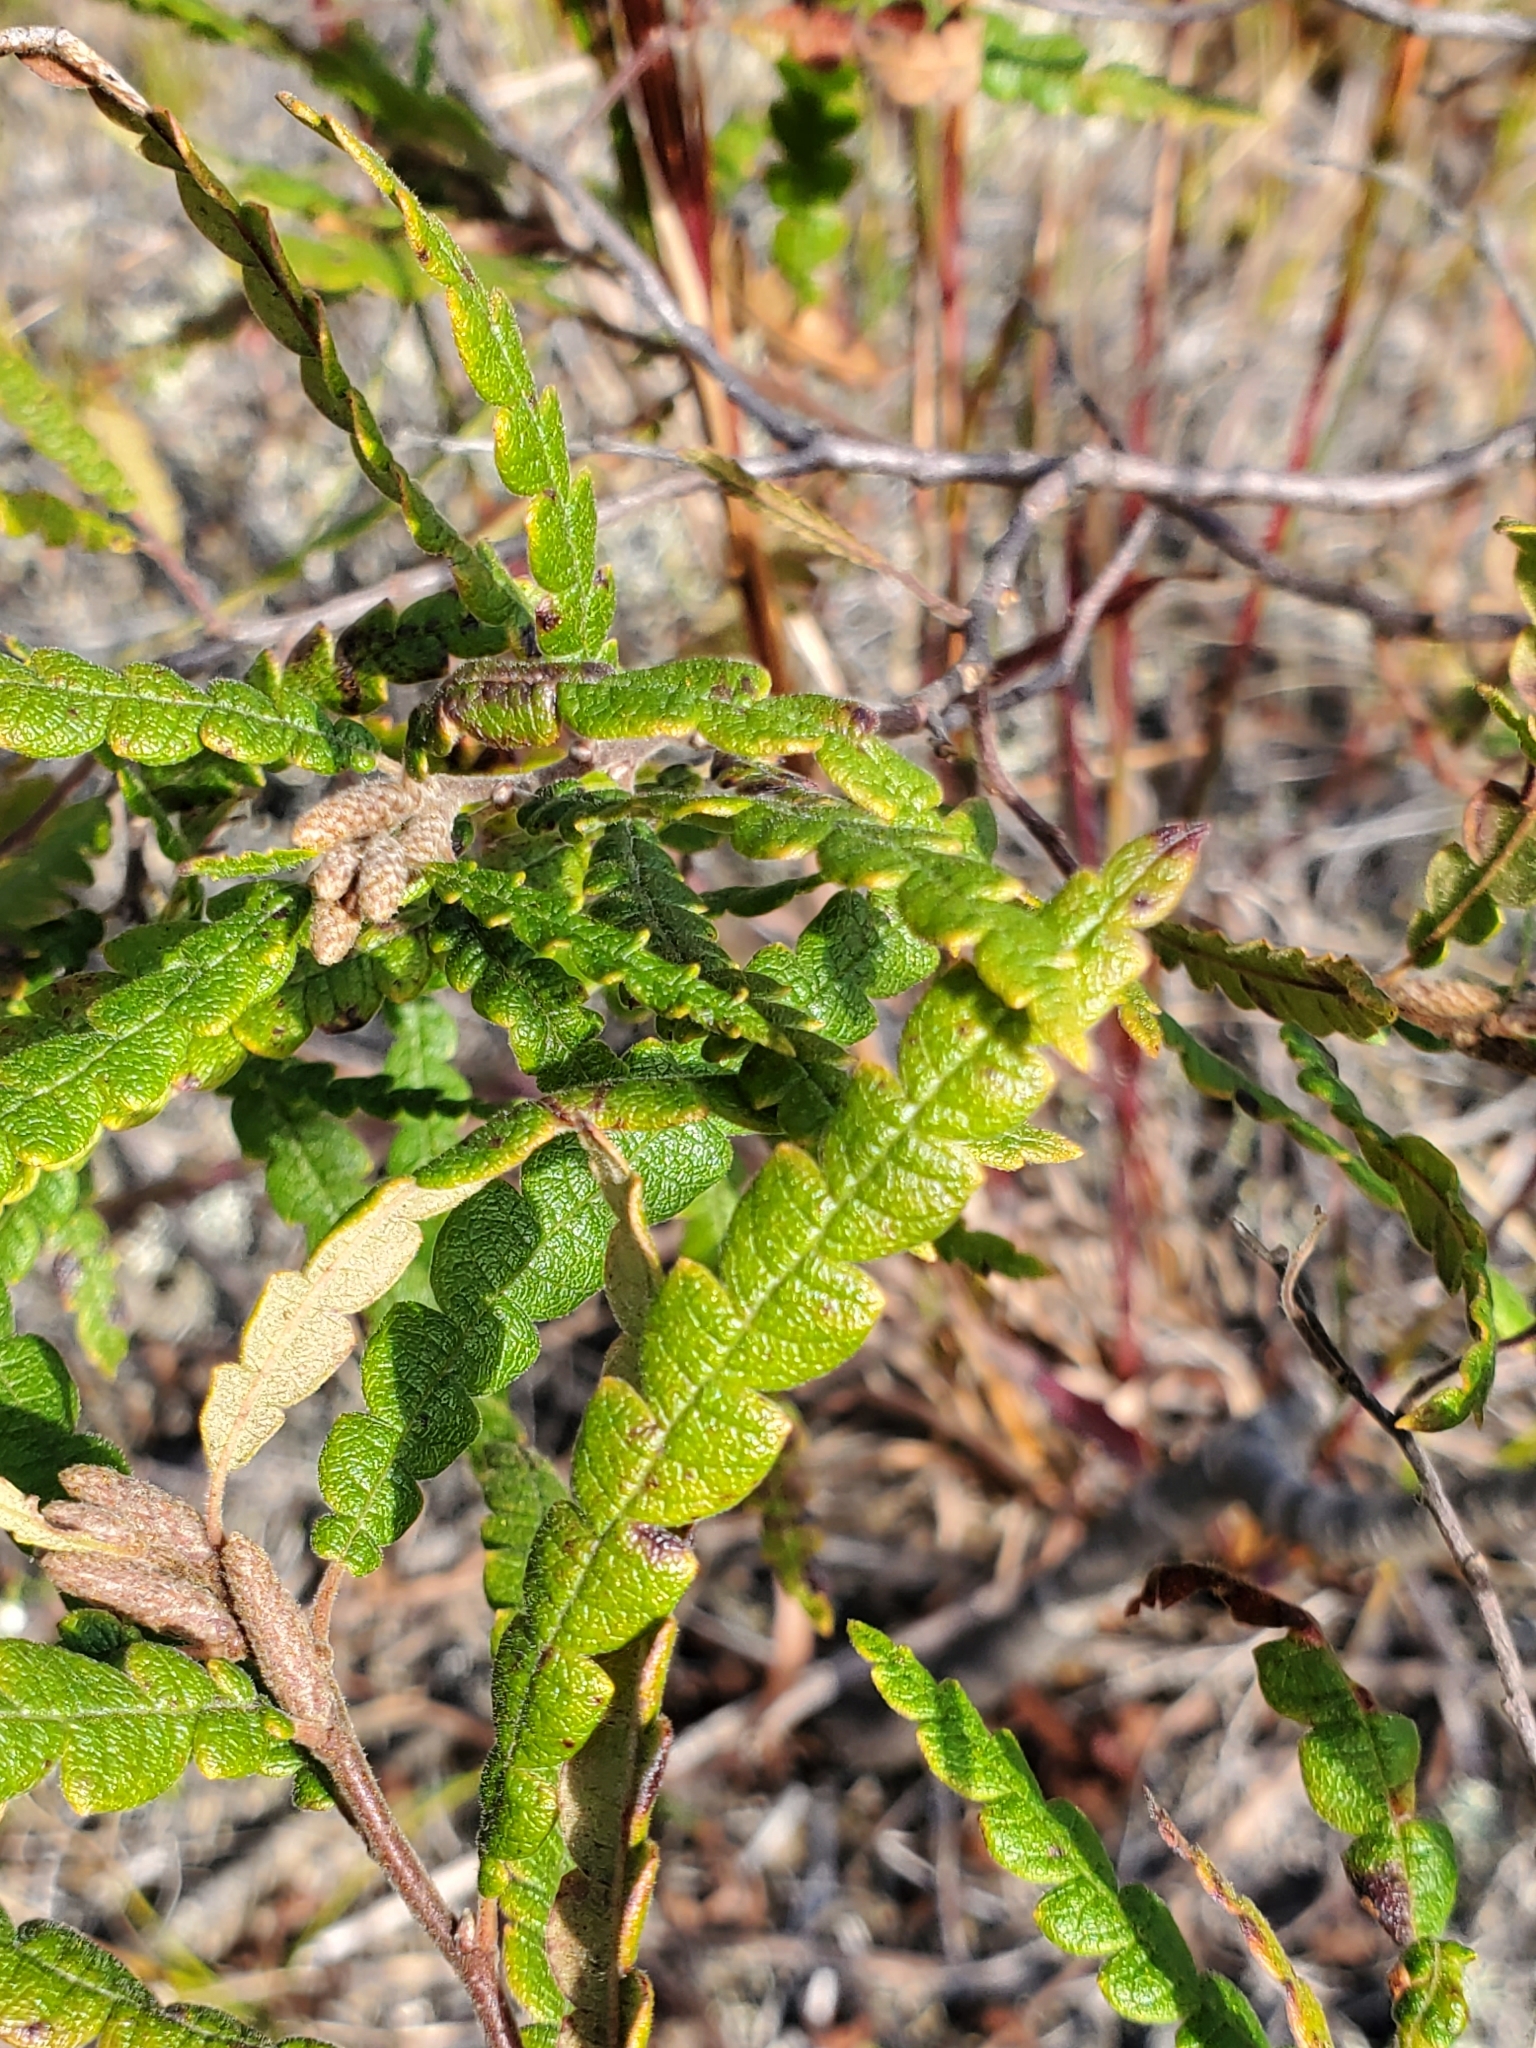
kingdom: Plantae
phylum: Tracheophyta
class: Magnoliopsida
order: Fagales
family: Myricaceae
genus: Comptonia
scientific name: Comptonia peregrina
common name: Sweet-fern
